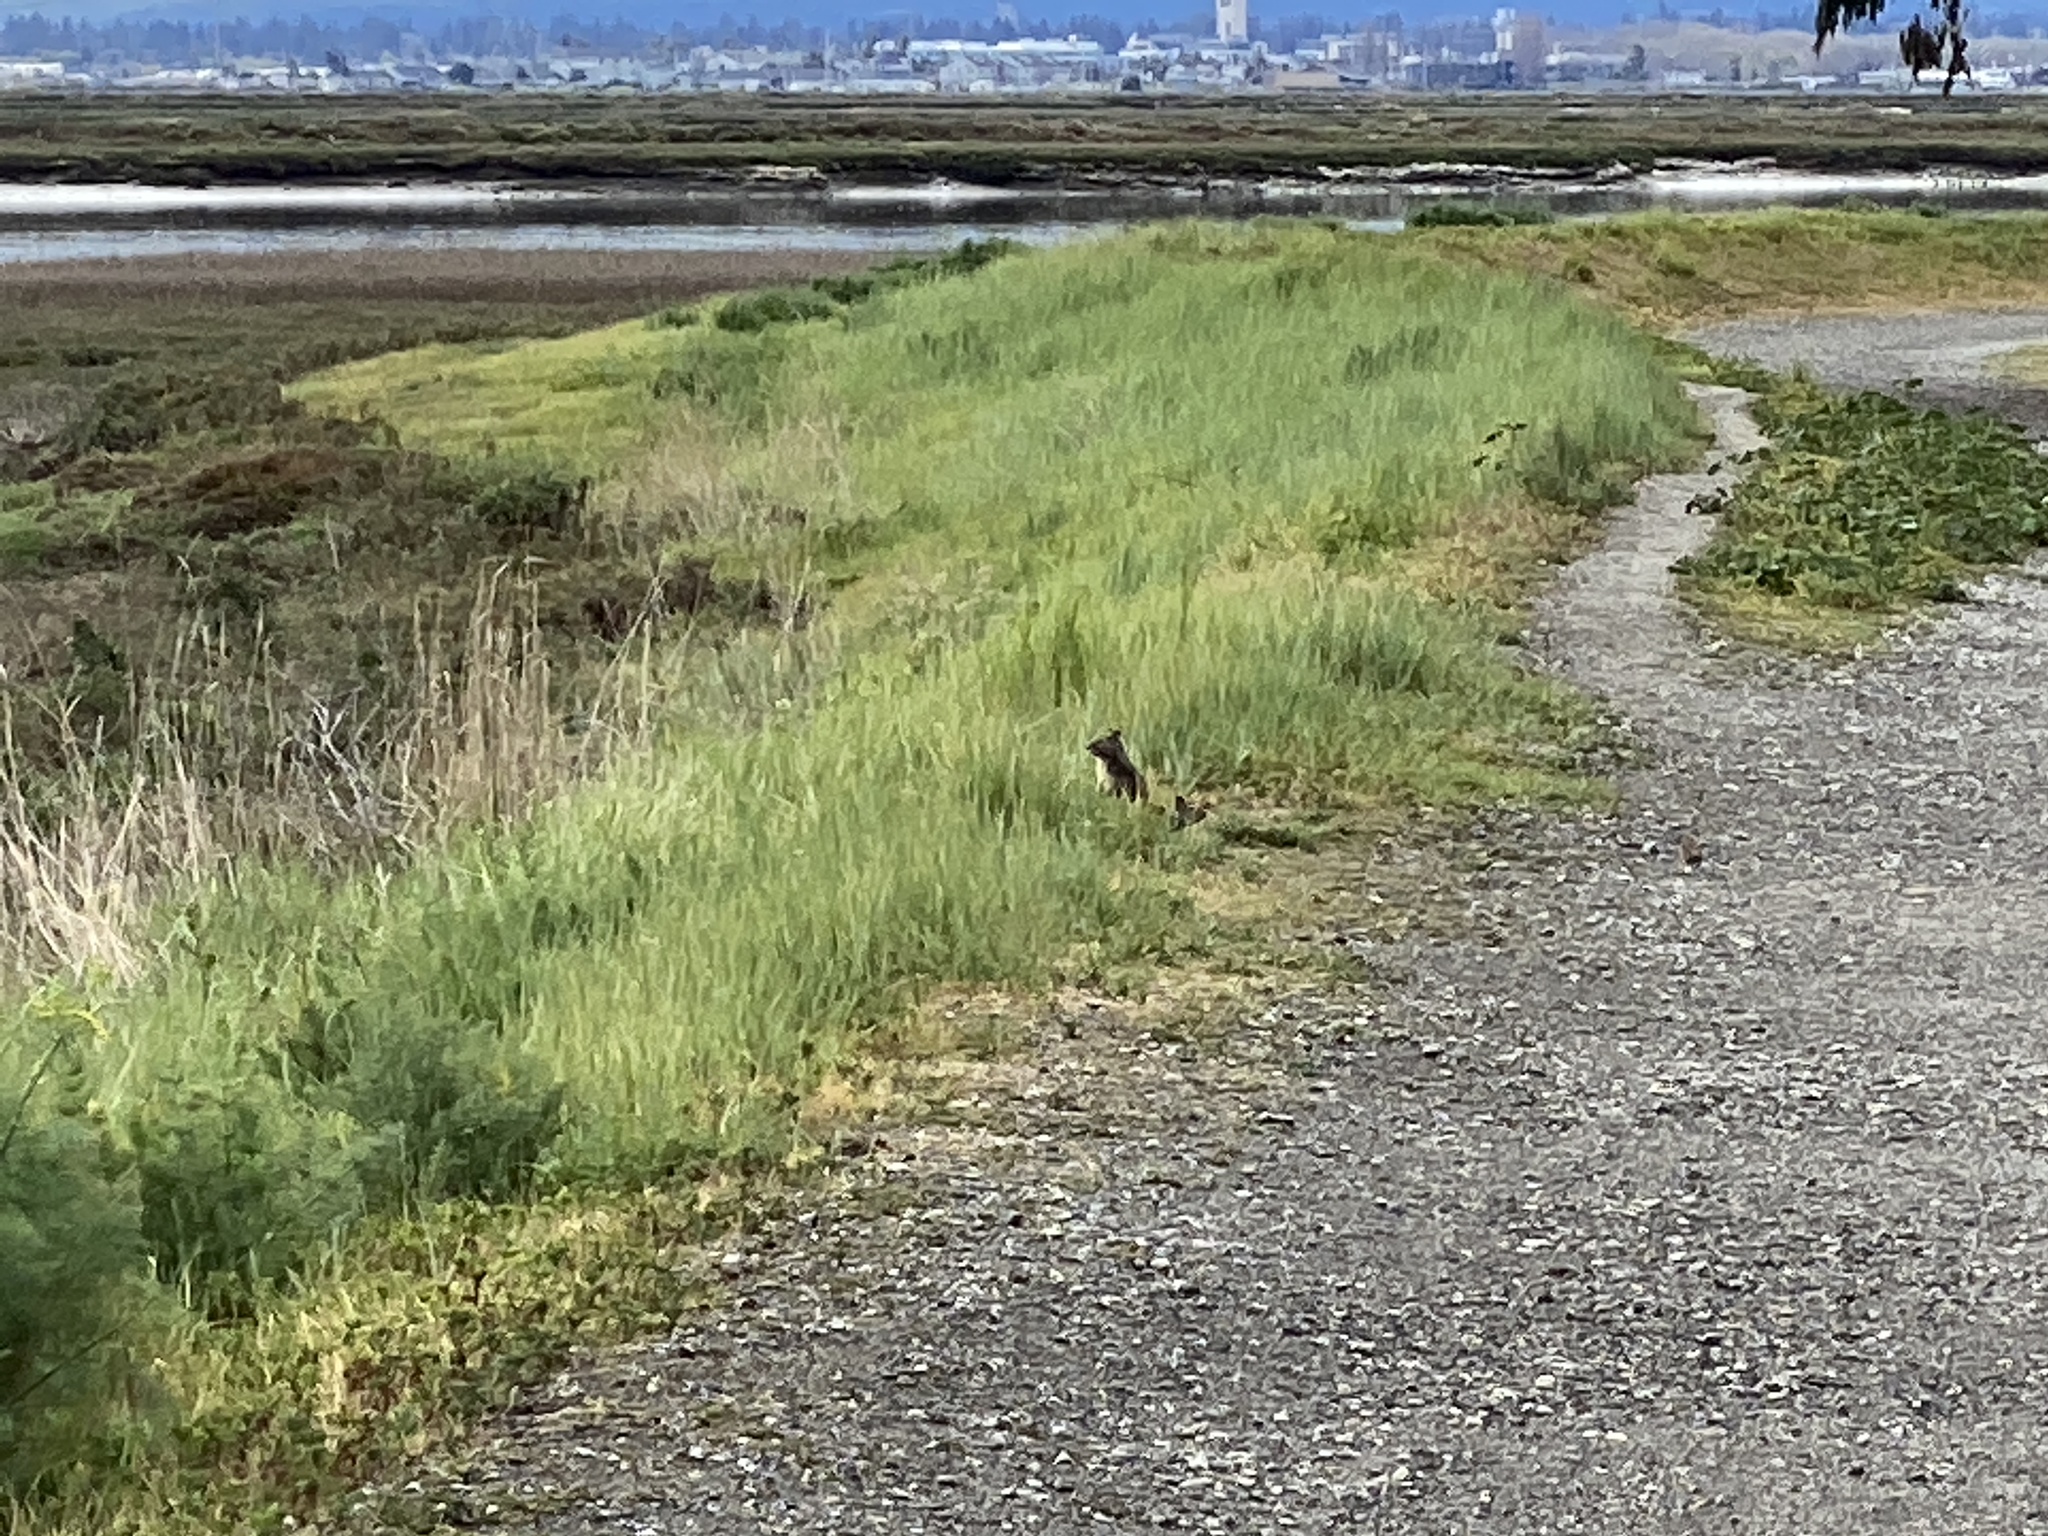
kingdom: Animalia
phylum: Chordata
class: Mammalia
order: Rodentia
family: Sciuridae
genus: Otospermophilus
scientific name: Otospermophilus beecheyi
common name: California ground squirrel
